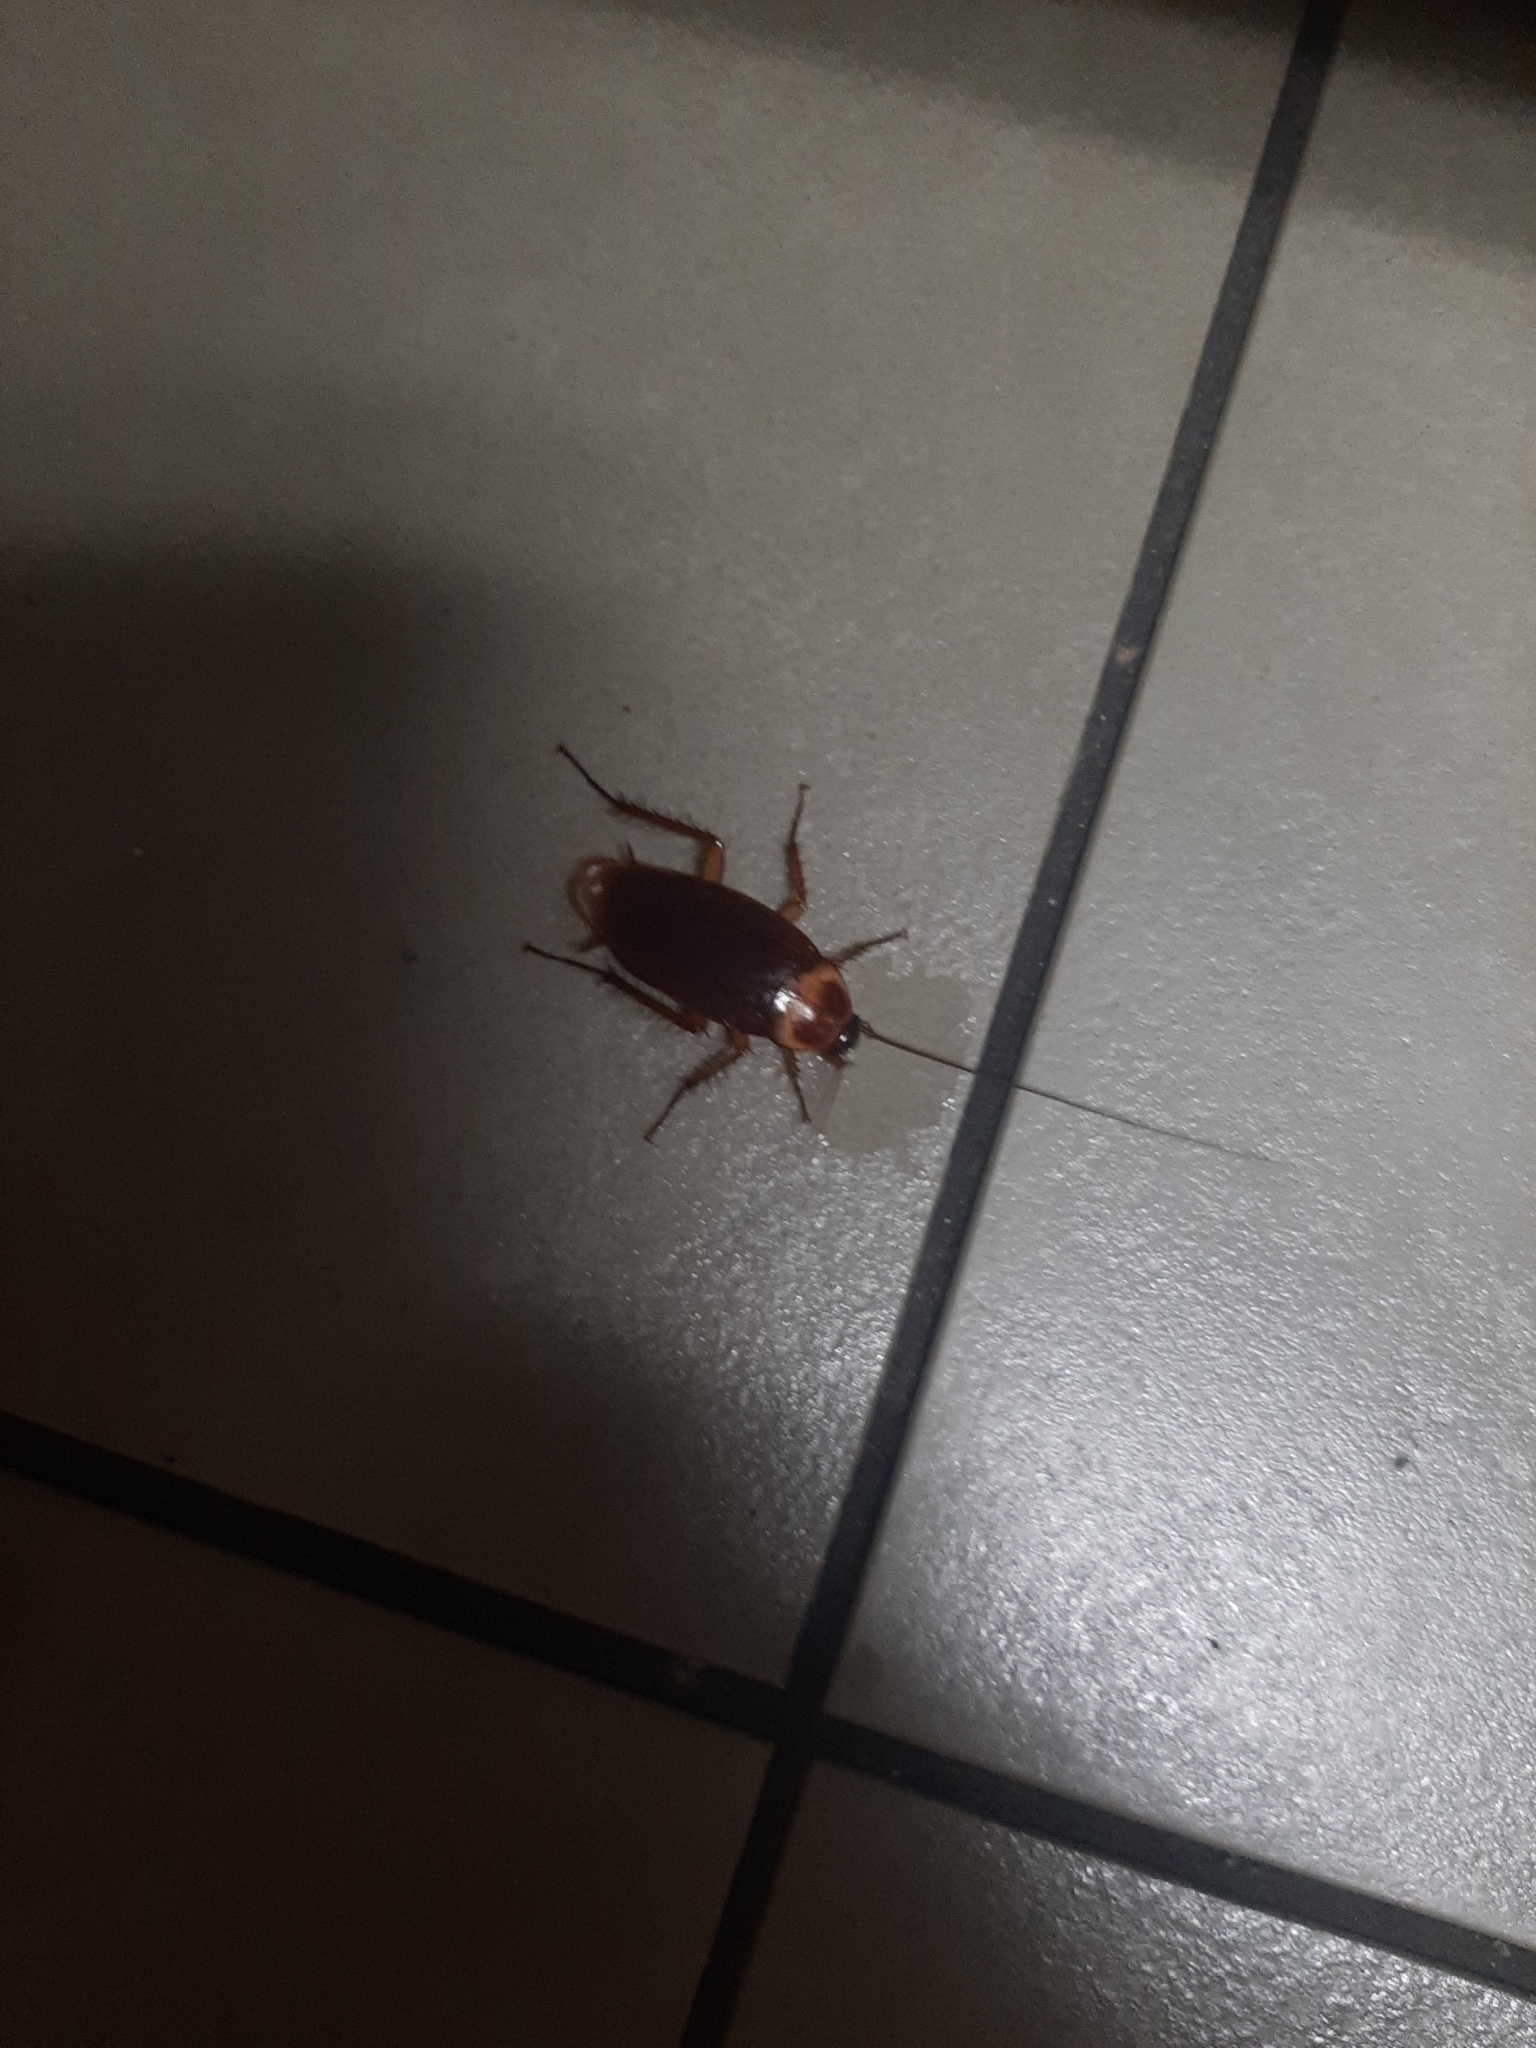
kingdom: Animalia
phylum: Arthropoda
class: Insecta
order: Blattodea
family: Blattidae
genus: Periplaneta
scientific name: Periplaneta americana
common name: American cockroach
